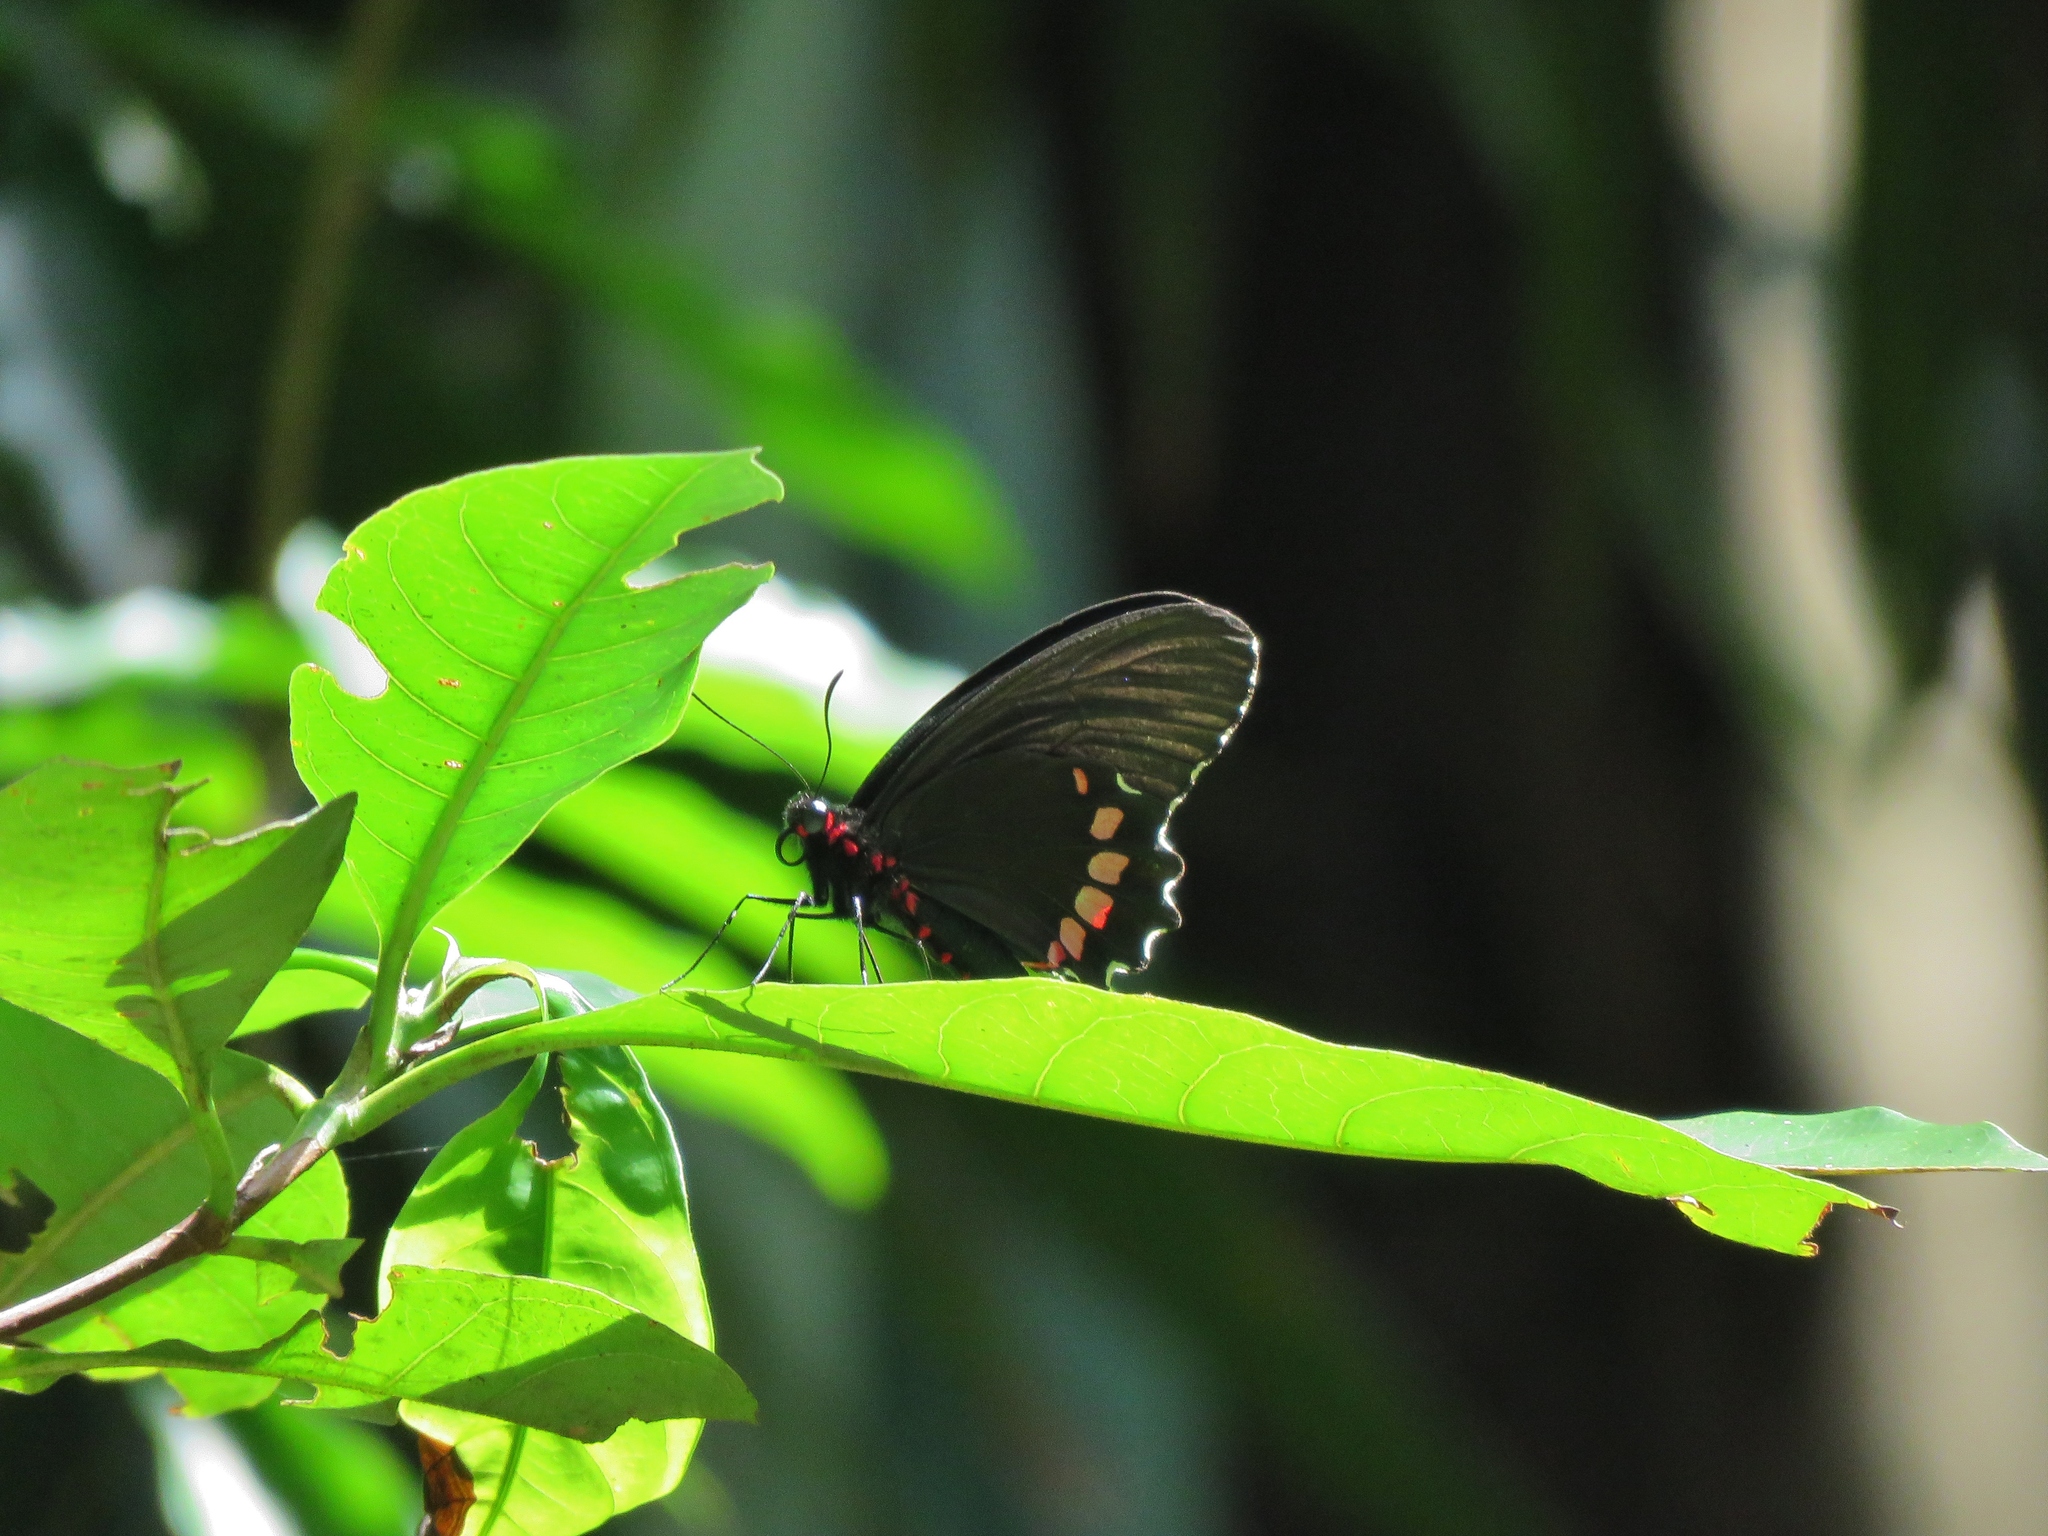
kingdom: Animalia
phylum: Arthropoda
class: Insecta
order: Lepidoptera
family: Papilionidae
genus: Parides
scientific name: Parides erithalion
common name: Variable cattleheart
